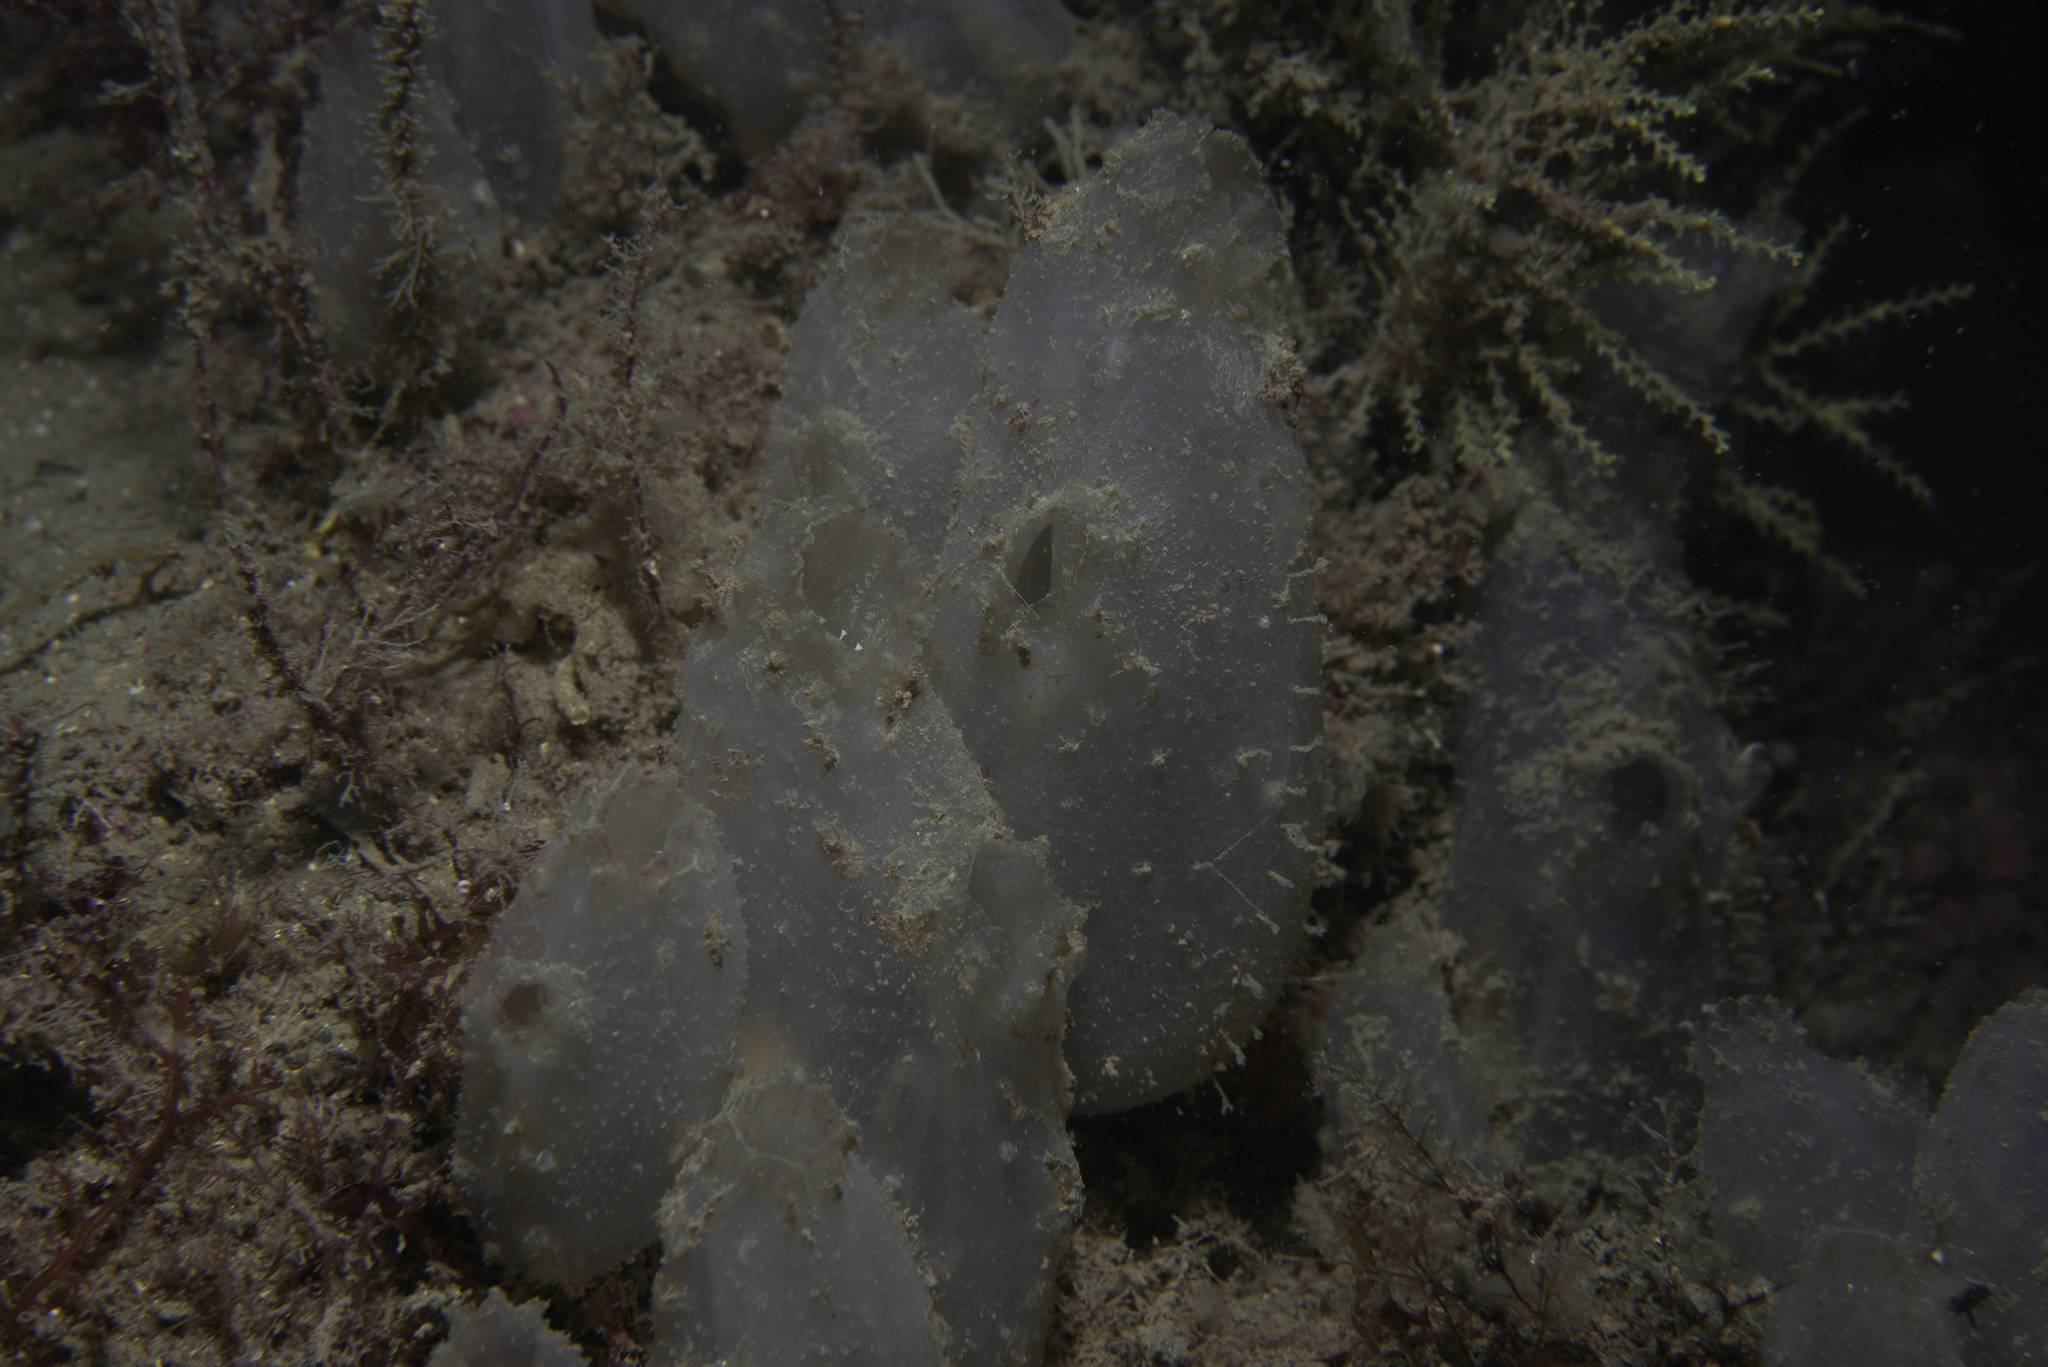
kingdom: Animalia
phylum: Chordata
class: Ascidiacea
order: Phlebobranchia
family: Ascidiidae
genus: Ascidiella
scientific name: Ascidiella aspersa
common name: Dirty sea-squirt
